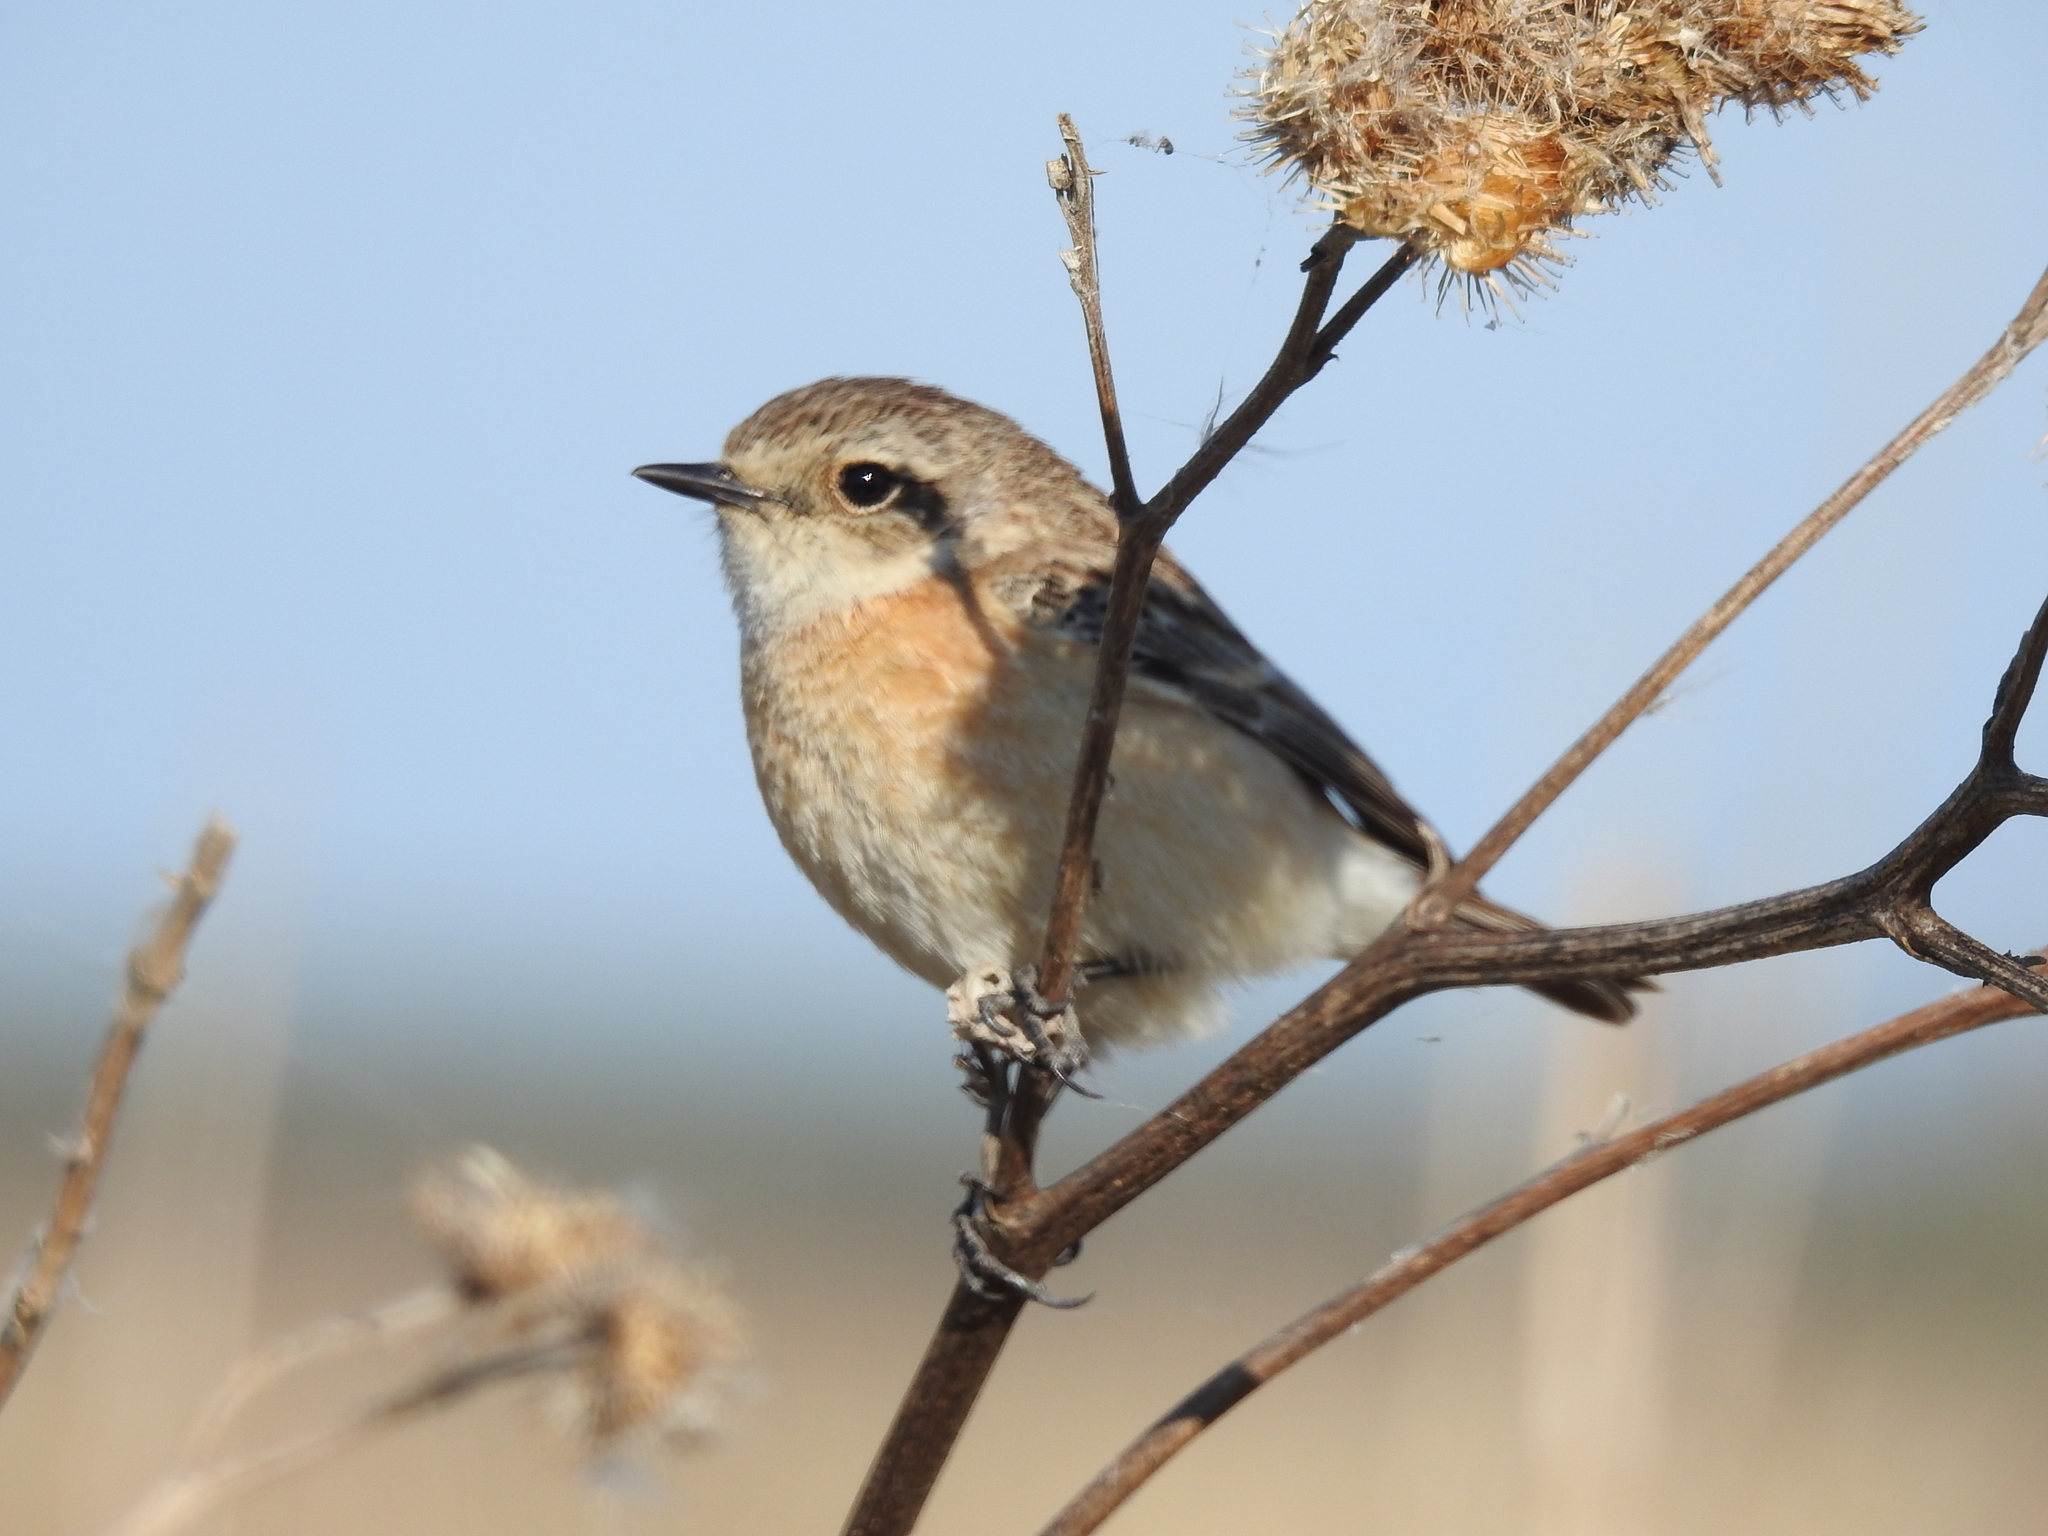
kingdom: Animalia
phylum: Chordata
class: Aves
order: Passeriformes
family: Muscicapidae
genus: Saxicola
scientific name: Saxicola maurus
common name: Siberian stonechat
